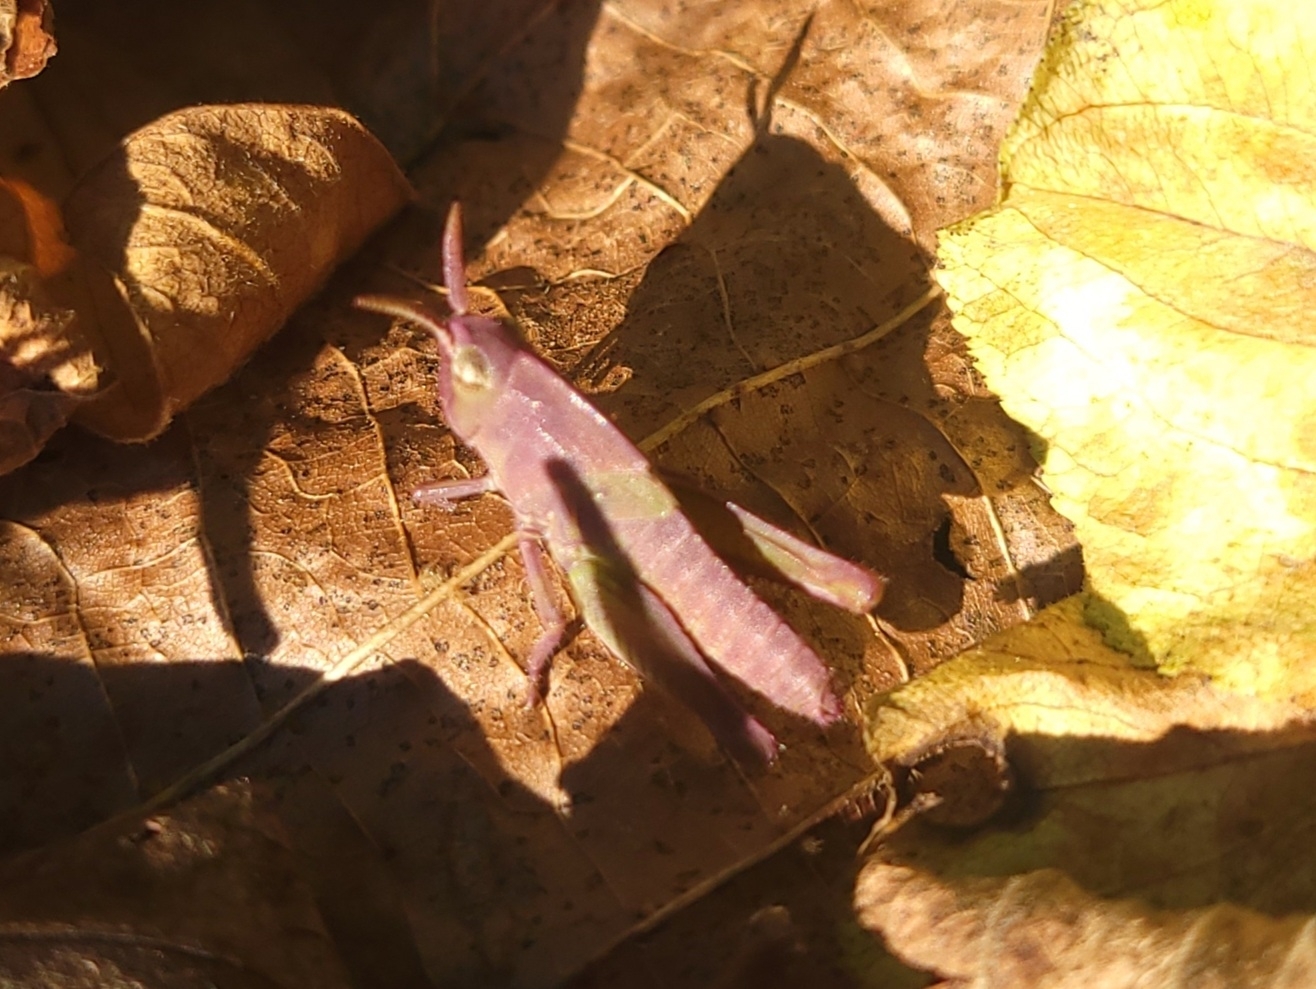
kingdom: Animalia
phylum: Arthropoda
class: Insecta
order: Orthoptera
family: Acrididae
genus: Chortophaga
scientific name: Chortophaga viridifasciata
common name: Green-striped grasshopper
